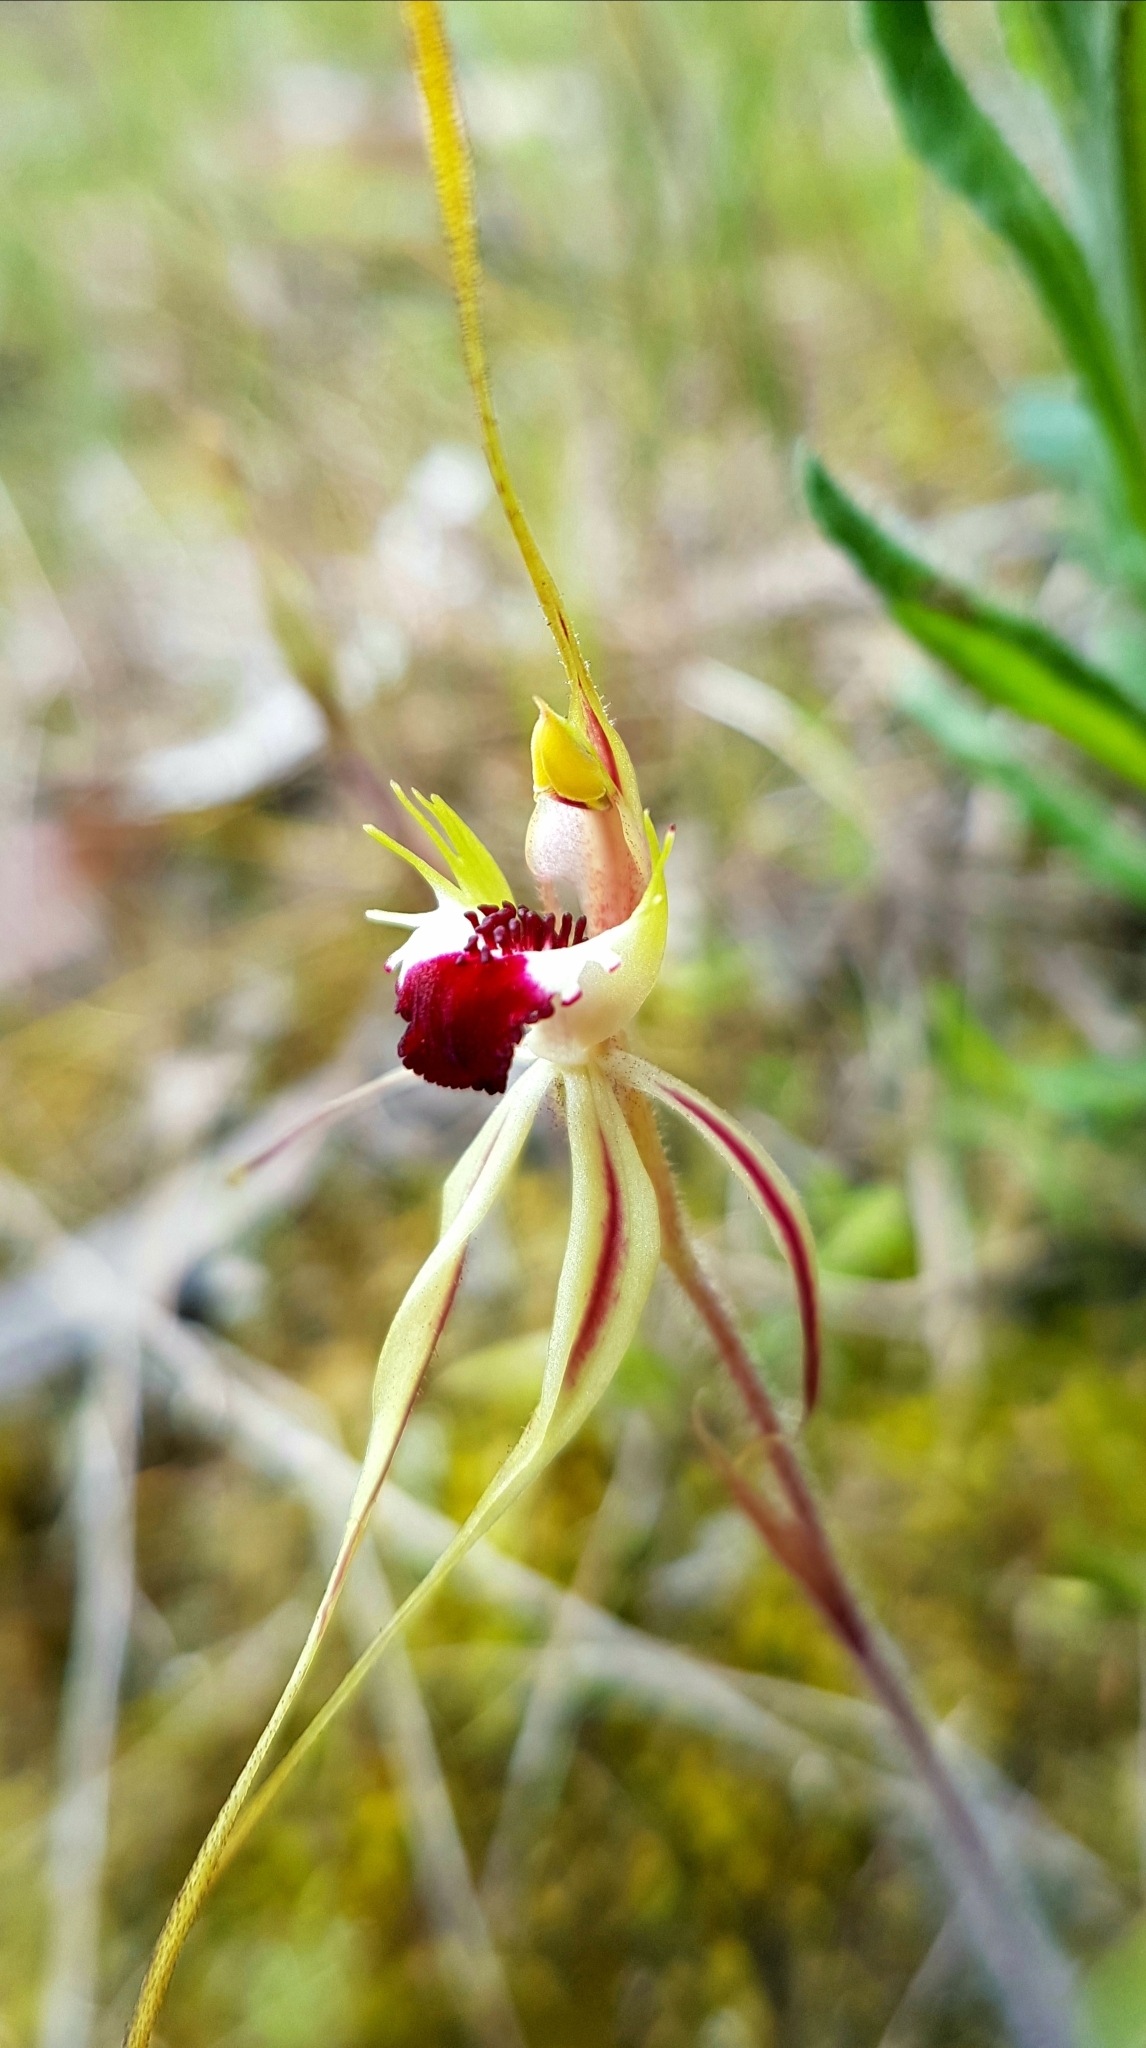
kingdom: Plantae
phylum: Tracheophyta
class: Liliopsida
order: Asparagales
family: Orchidaceae
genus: Caladenia
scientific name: Caladenia phaeoclavia
